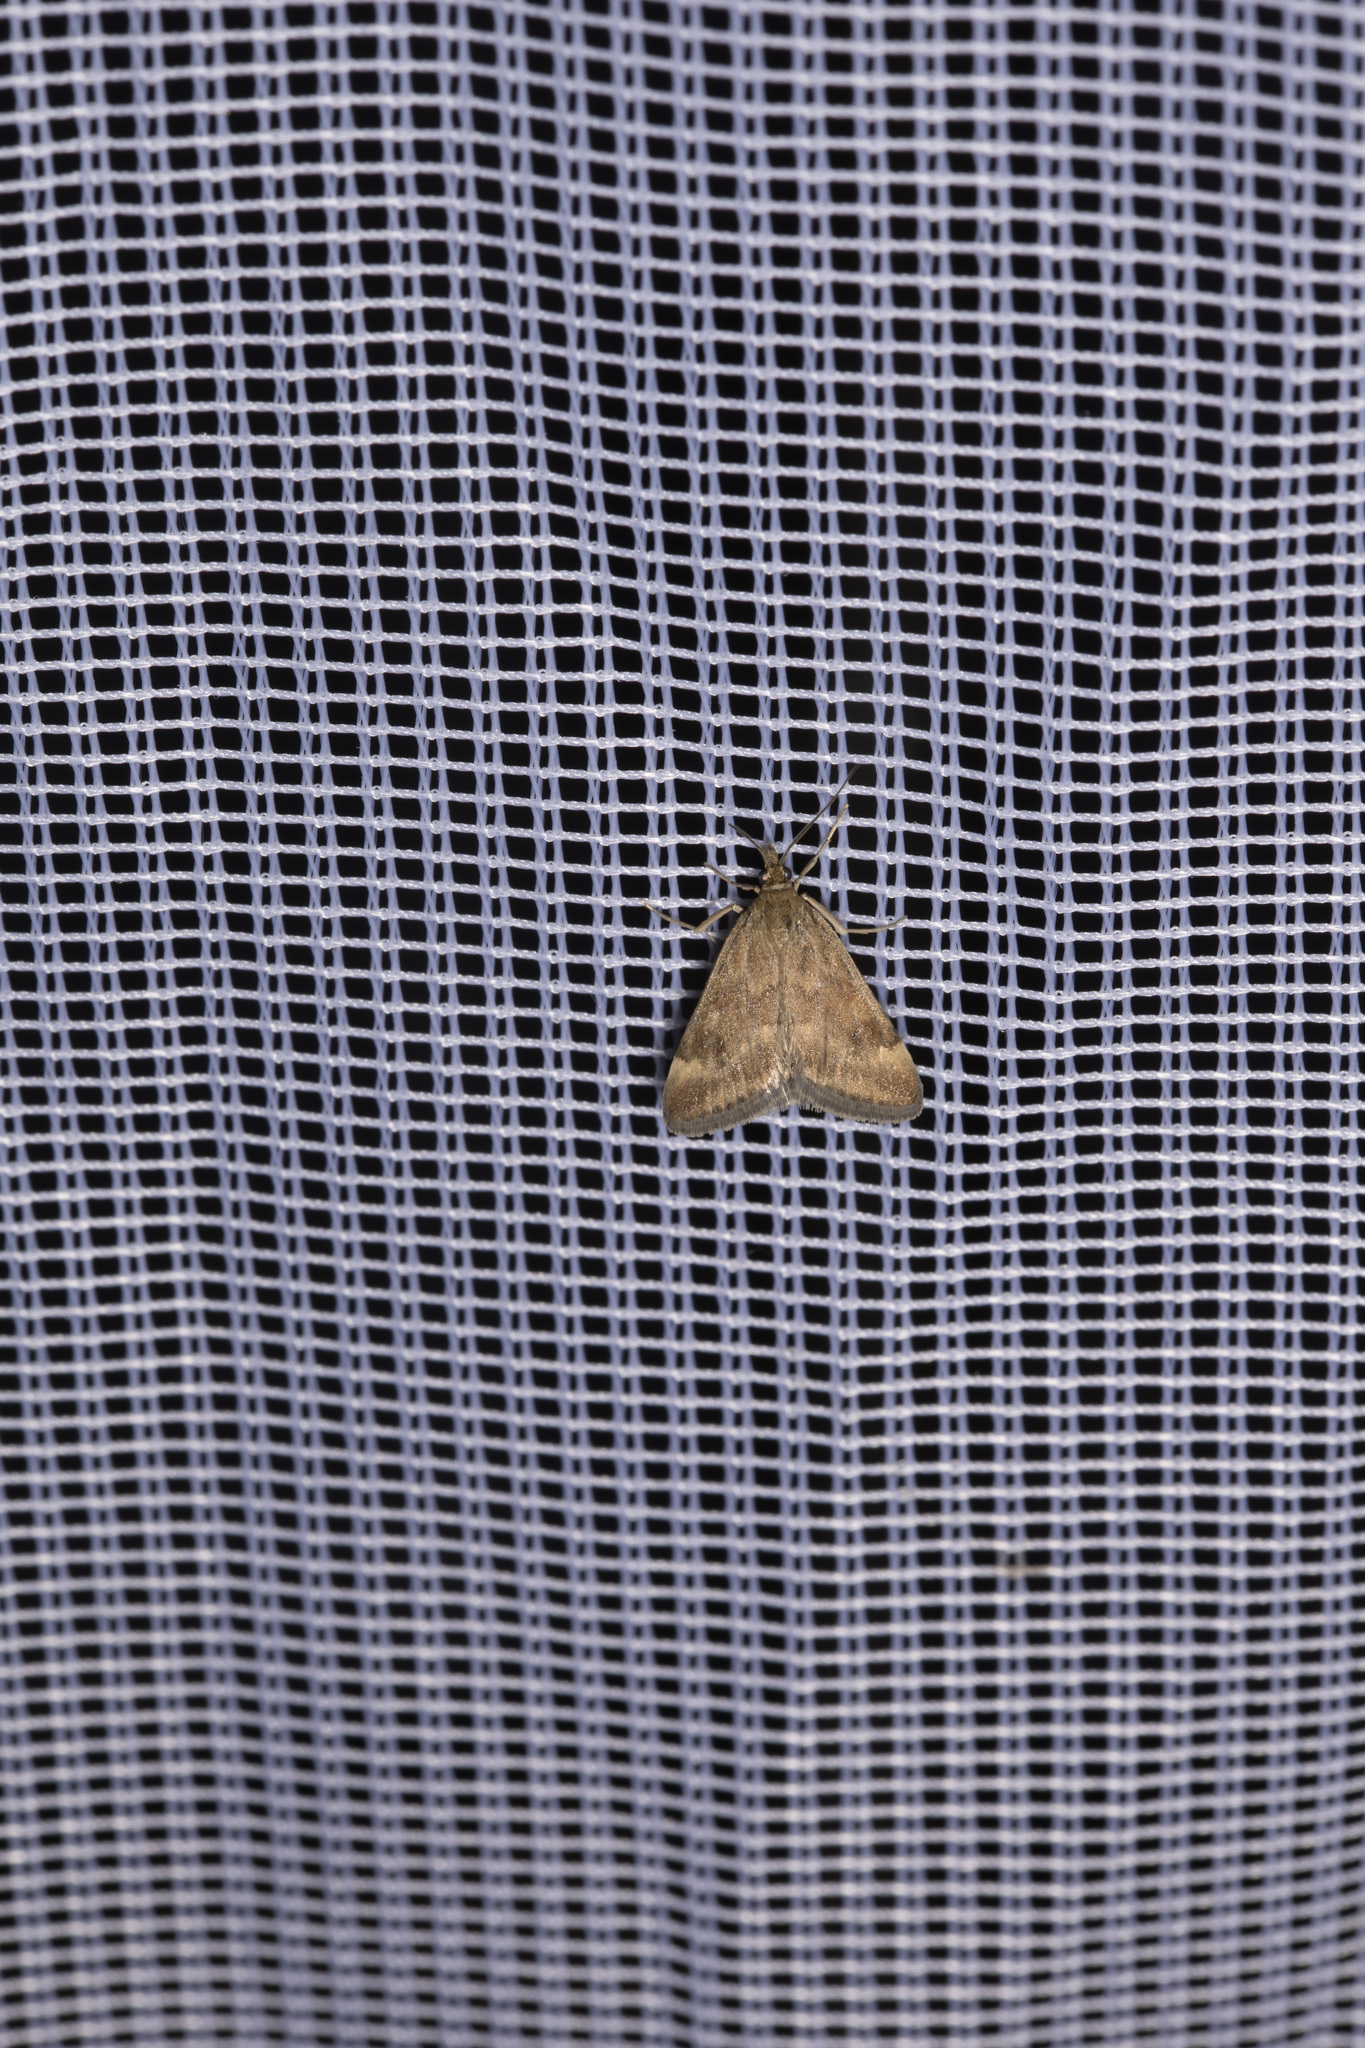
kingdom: Animalia
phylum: Arthropoda
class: Insecta
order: Lepidoptera
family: Crambidae
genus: Pyrausta
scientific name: Pyrausta despicata
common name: Straw-barred pearl
